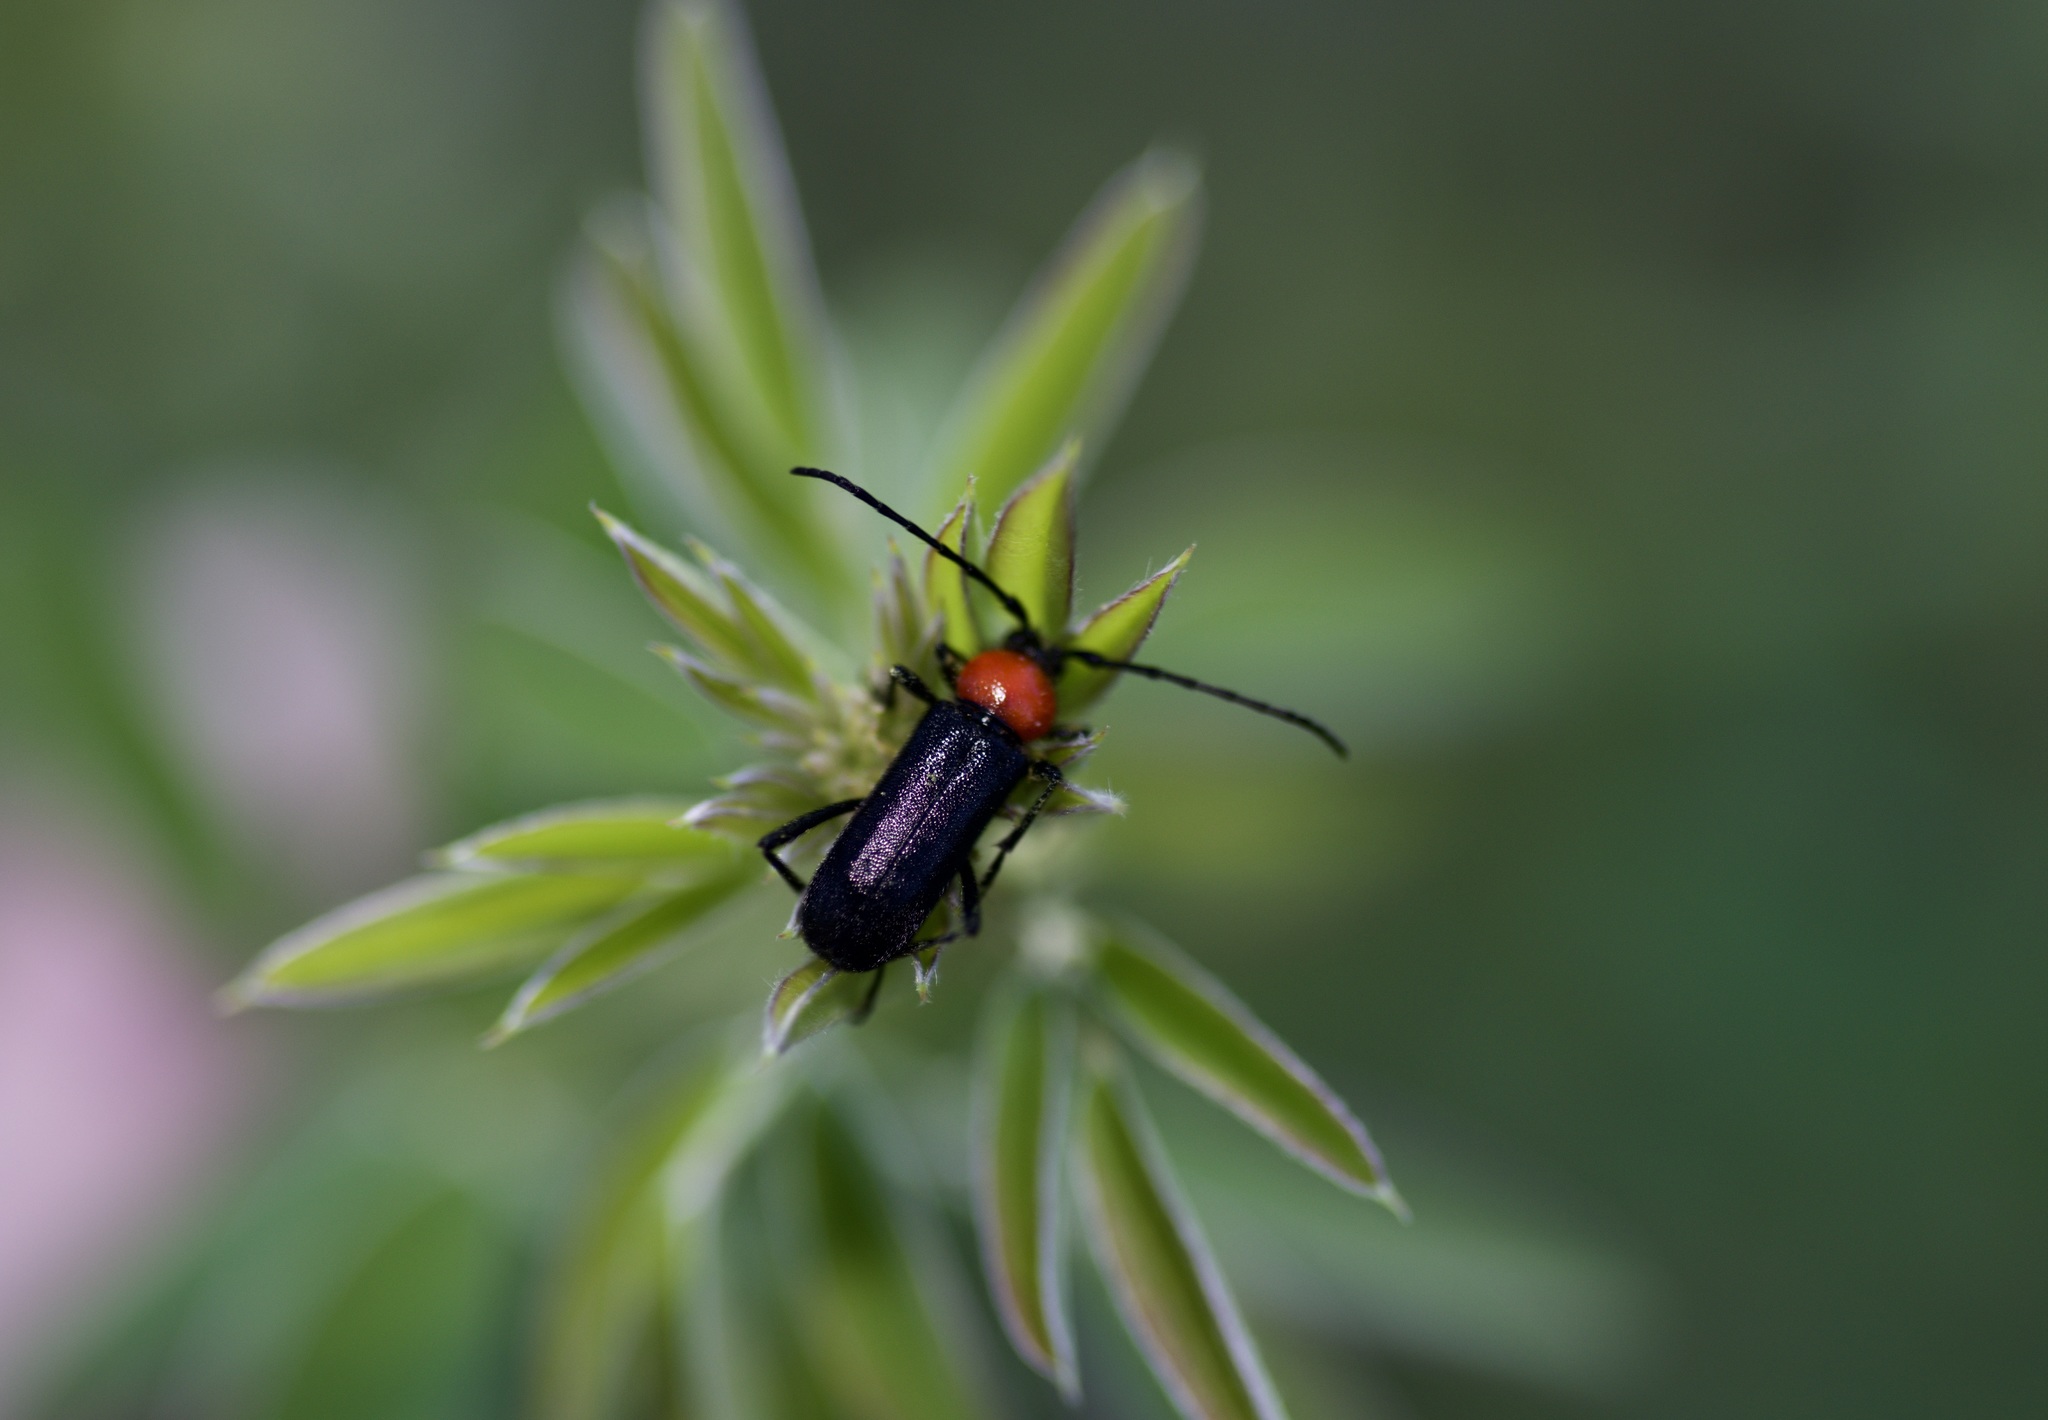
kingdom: Animalia
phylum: Arthropoda
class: Insecta
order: Coleoptera
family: Cerambycidae
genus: Batyle
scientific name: Batyle ignicollis
